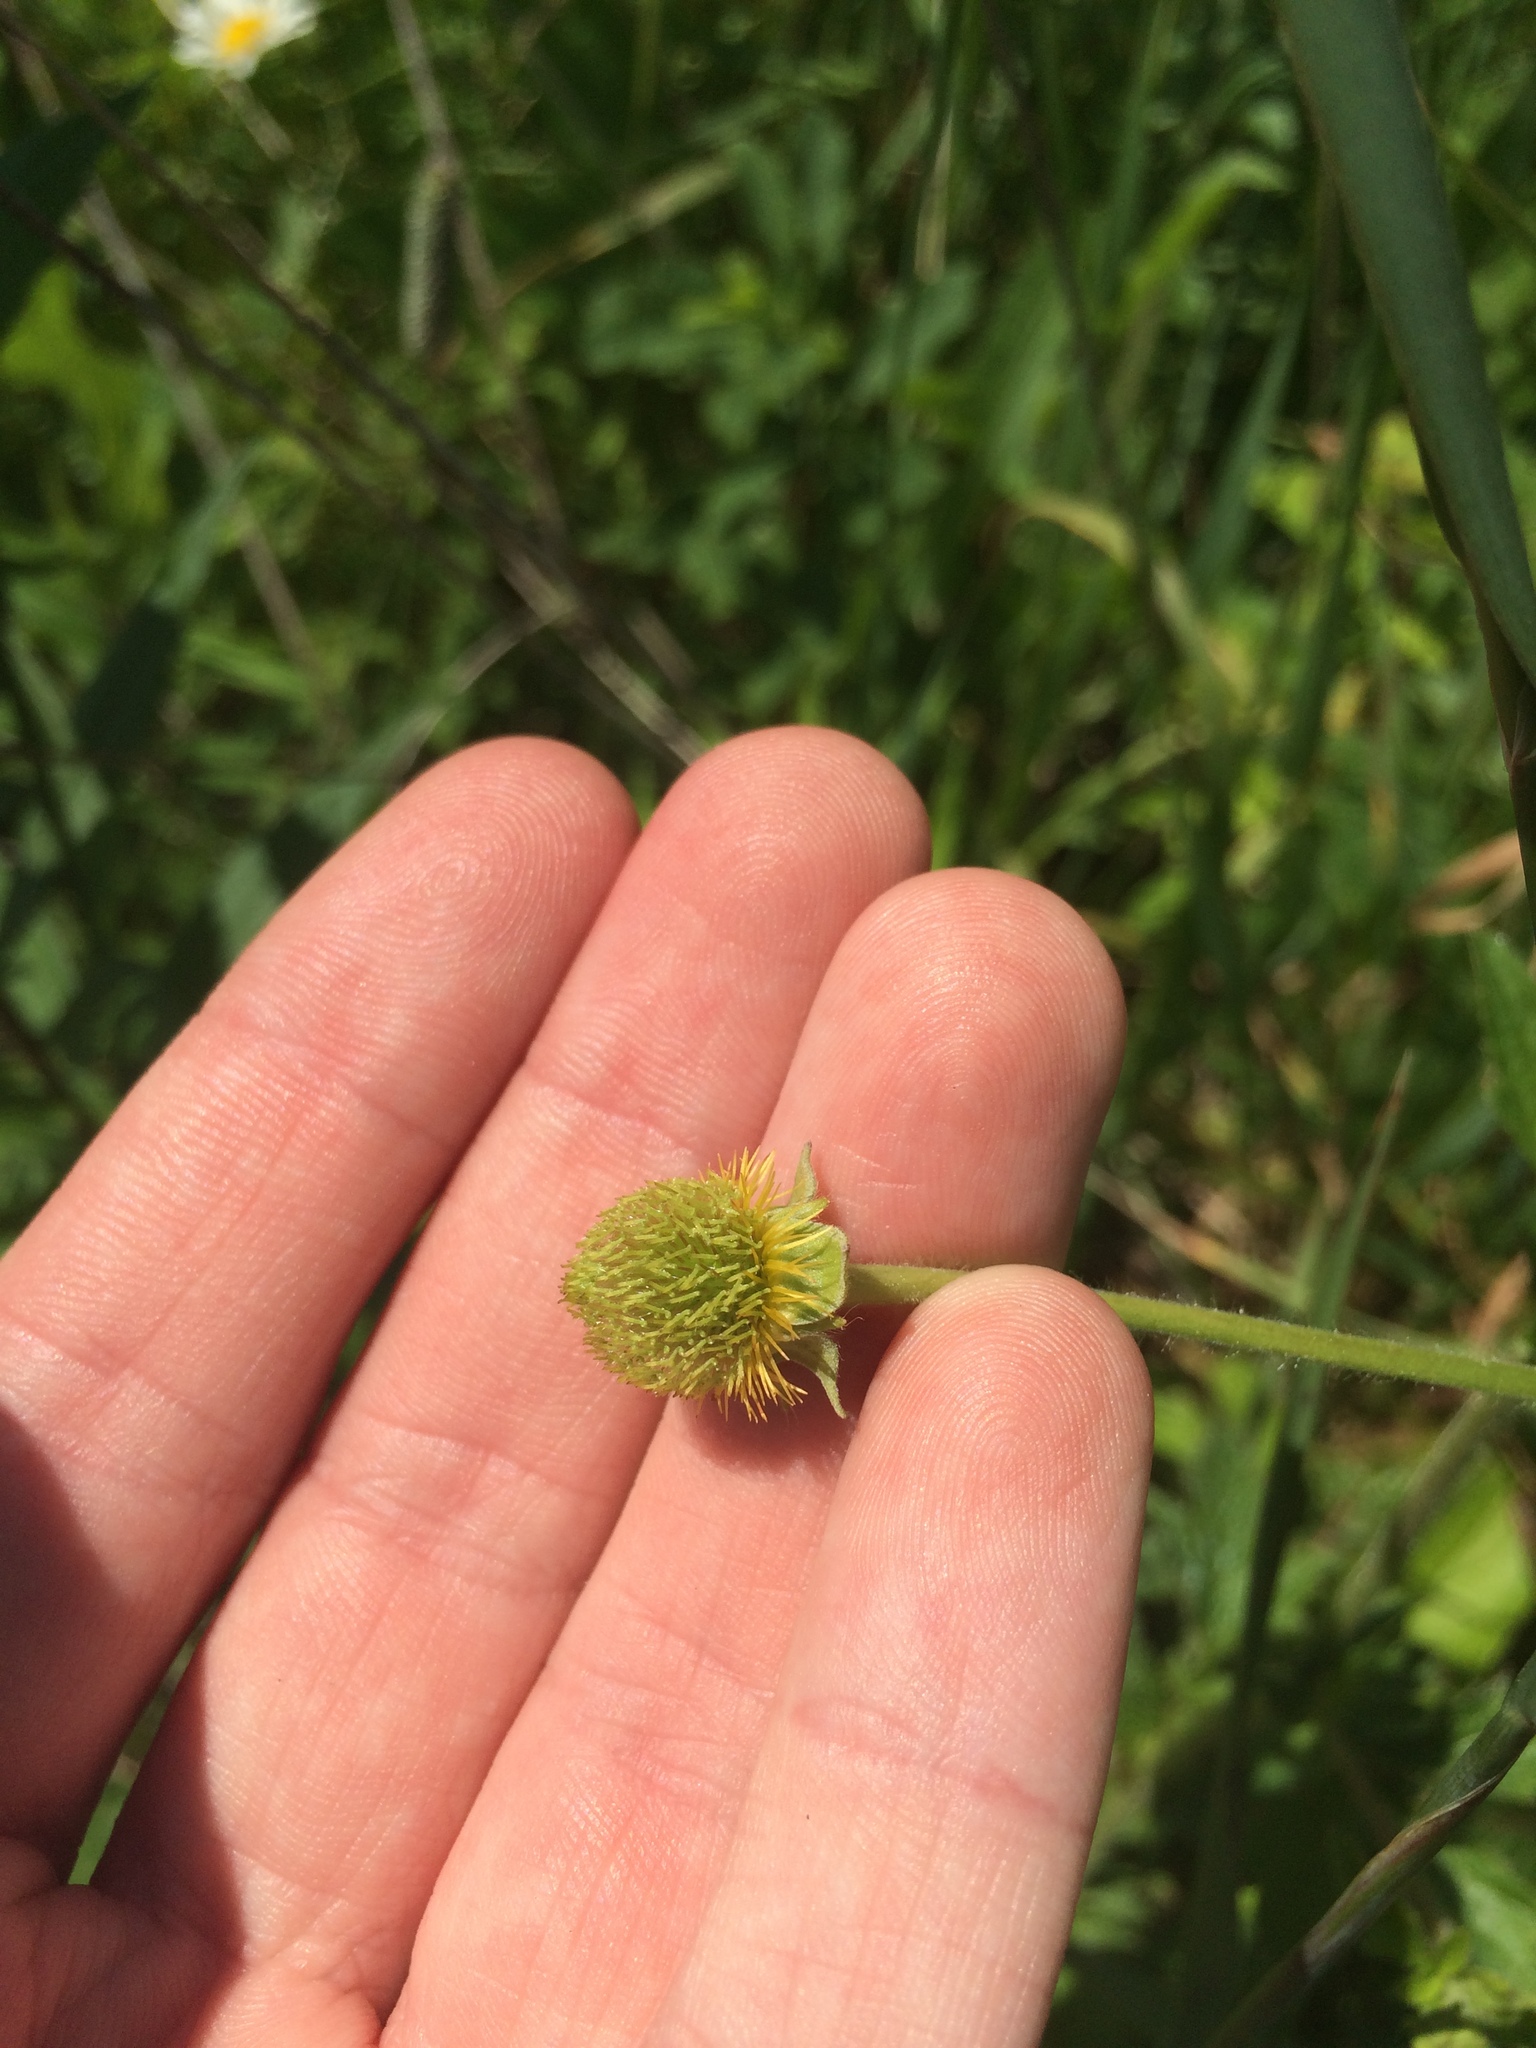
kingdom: Plantae
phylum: Tracheophyta
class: Magnoliopsida
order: Rosales
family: Rosaceae
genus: Geum
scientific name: Geum aleppicum
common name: Yellow avens
